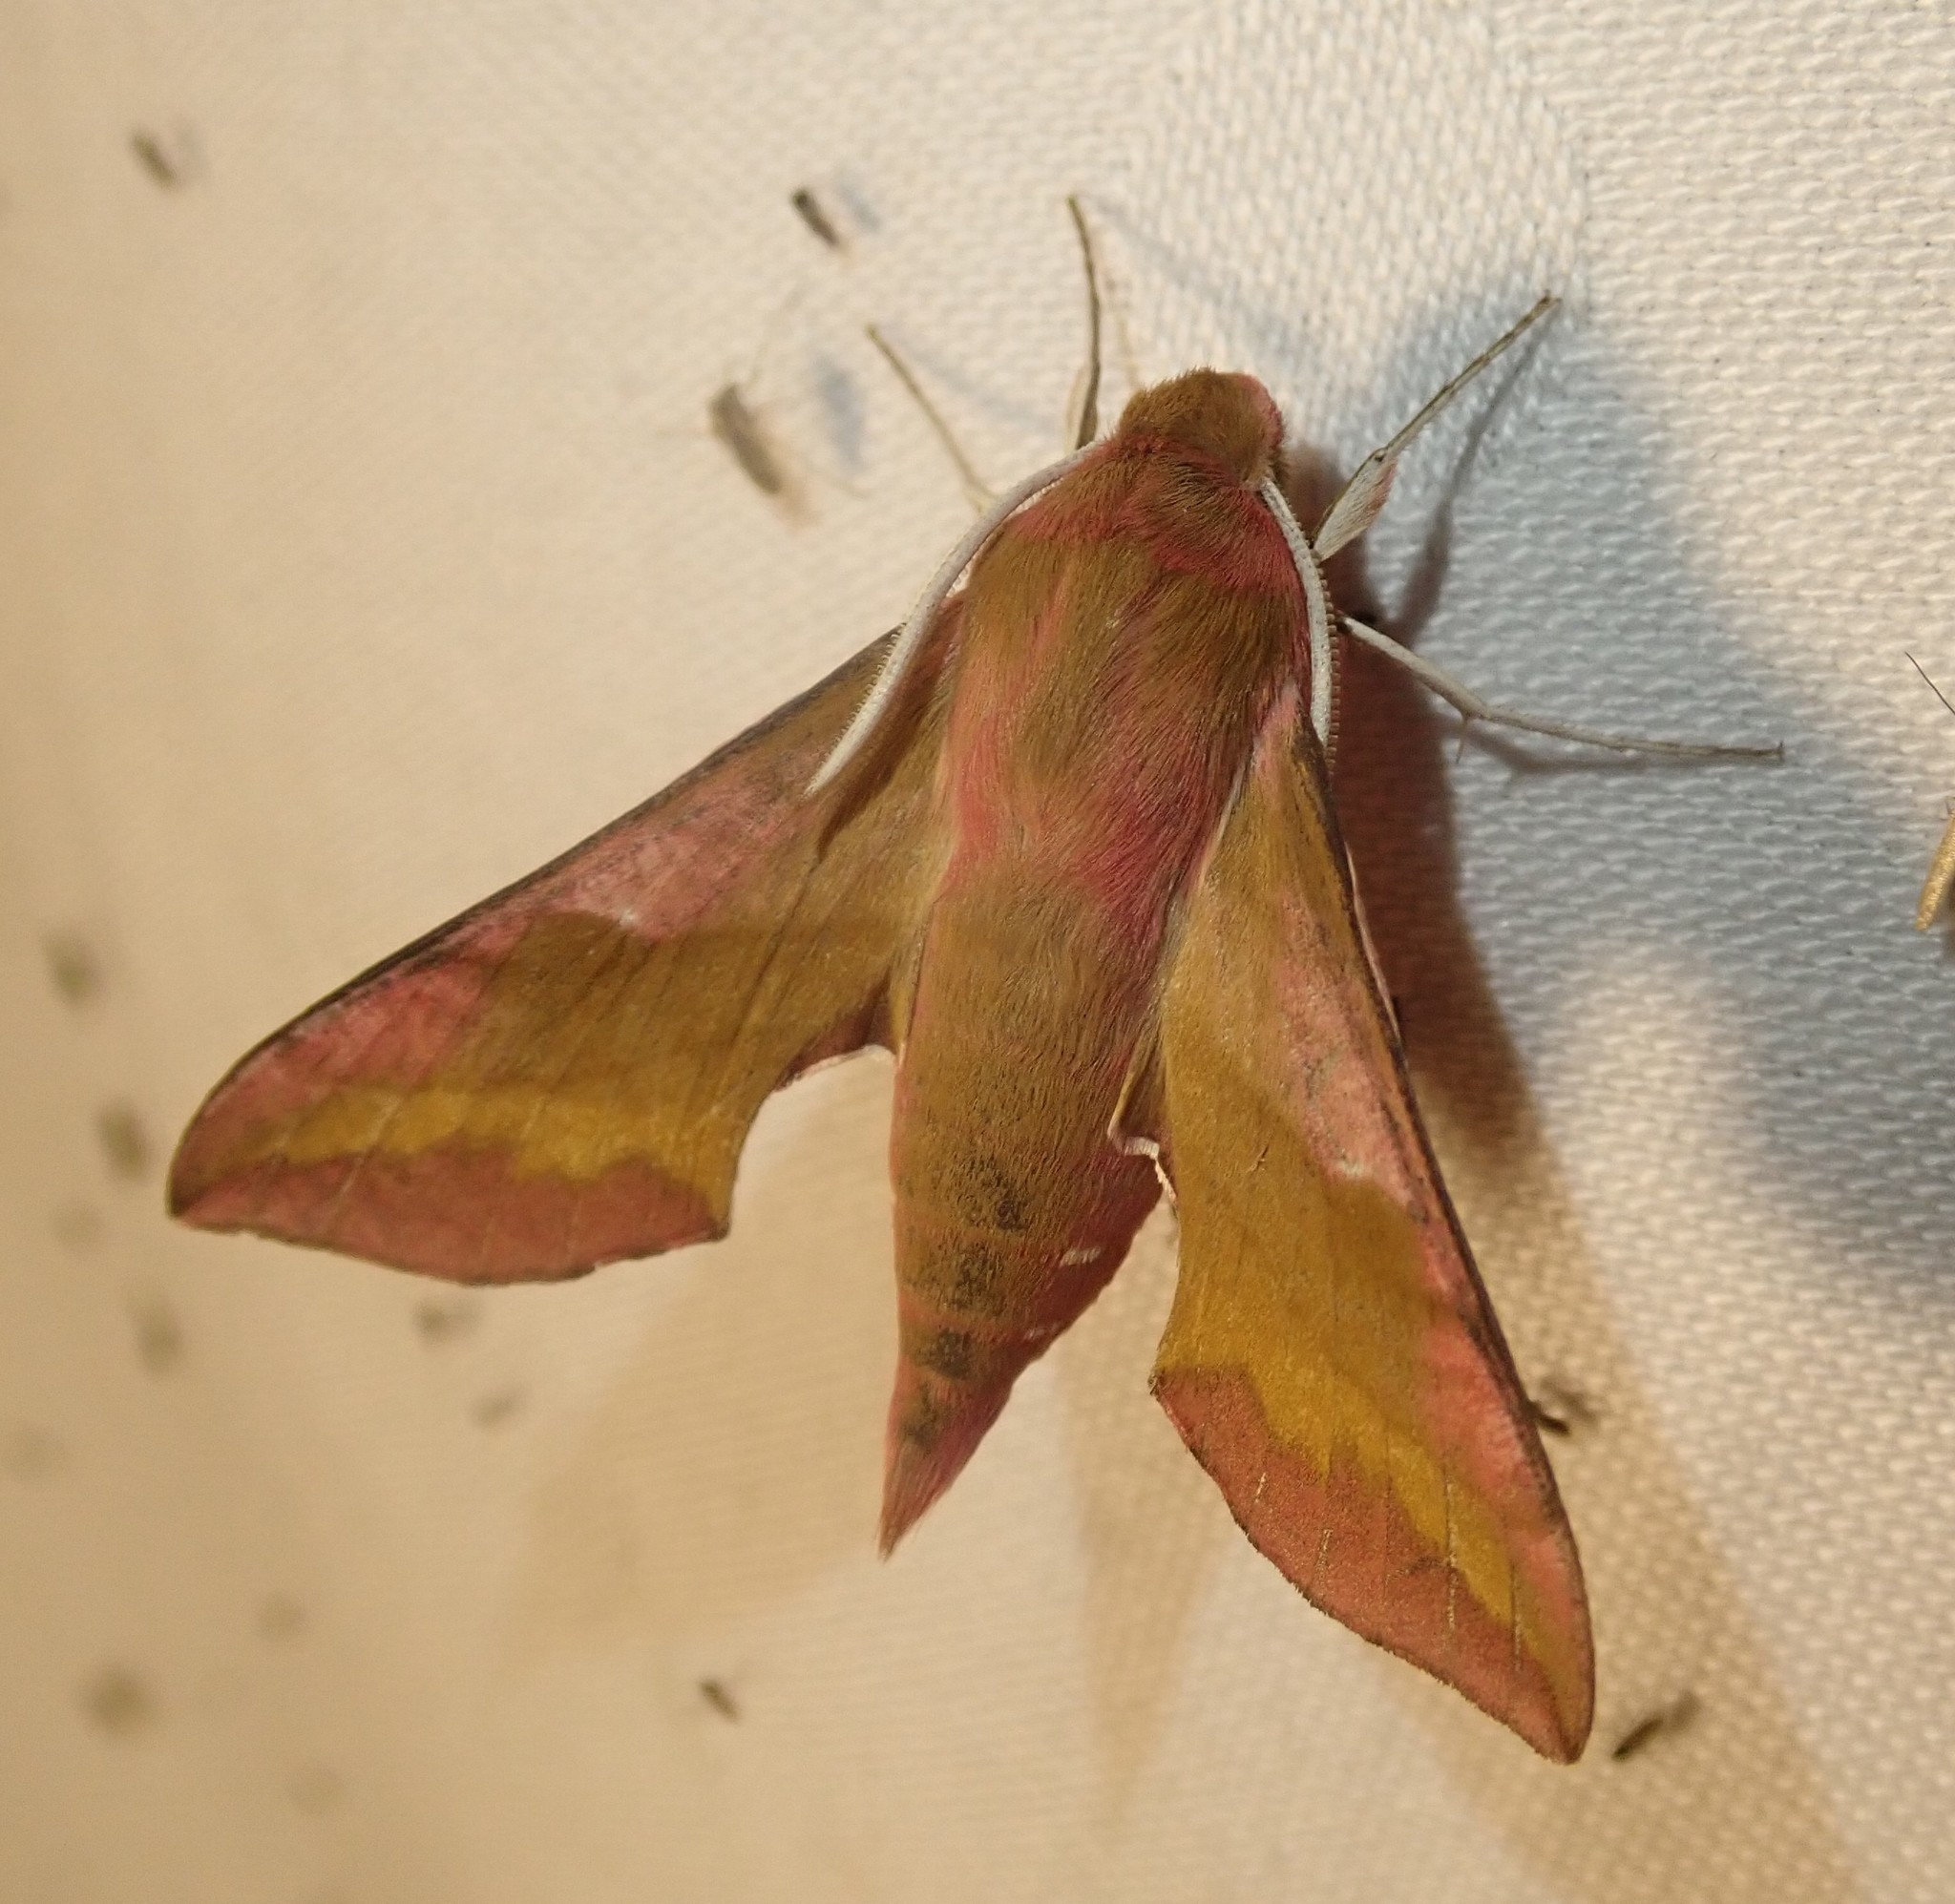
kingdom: Animalia
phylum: Arthropoda
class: Insecta
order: Lepidoptera
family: Sphingidae
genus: Deilephila
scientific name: Deilephila porcellus
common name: Small elephant hawk-moth
